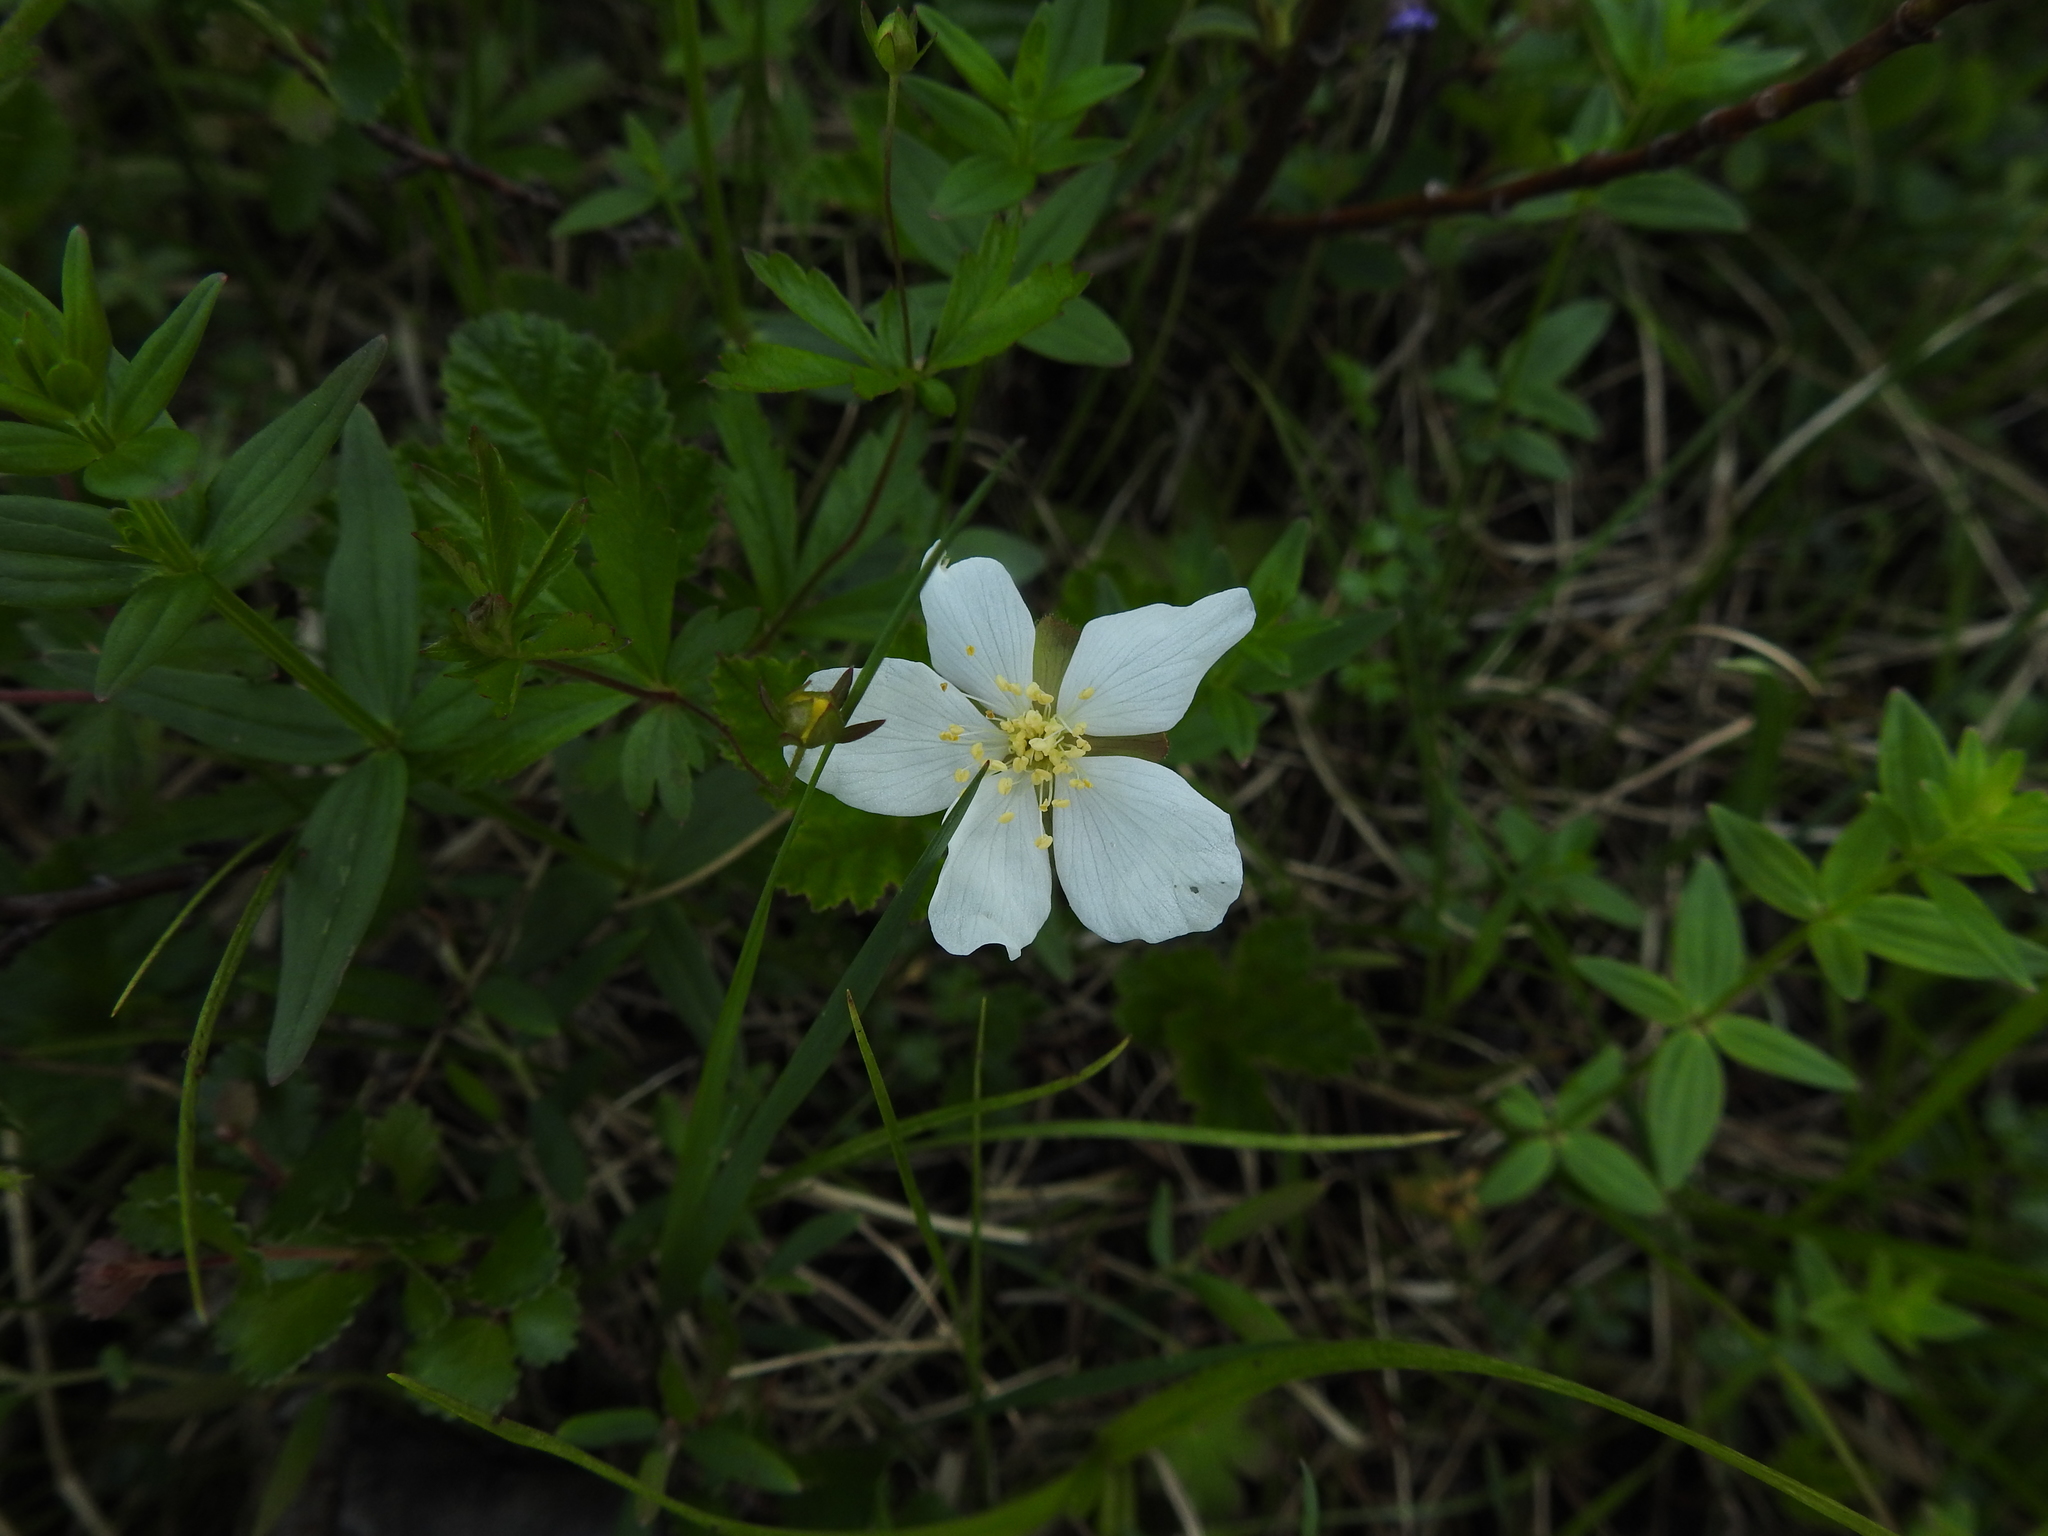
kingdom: Plantae
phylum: Tracheophyta
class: Magnoliopsida
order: Rosales
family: Rosaceae
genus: Rubus
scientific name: Rubus chamaemorus
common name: Cloudberry
